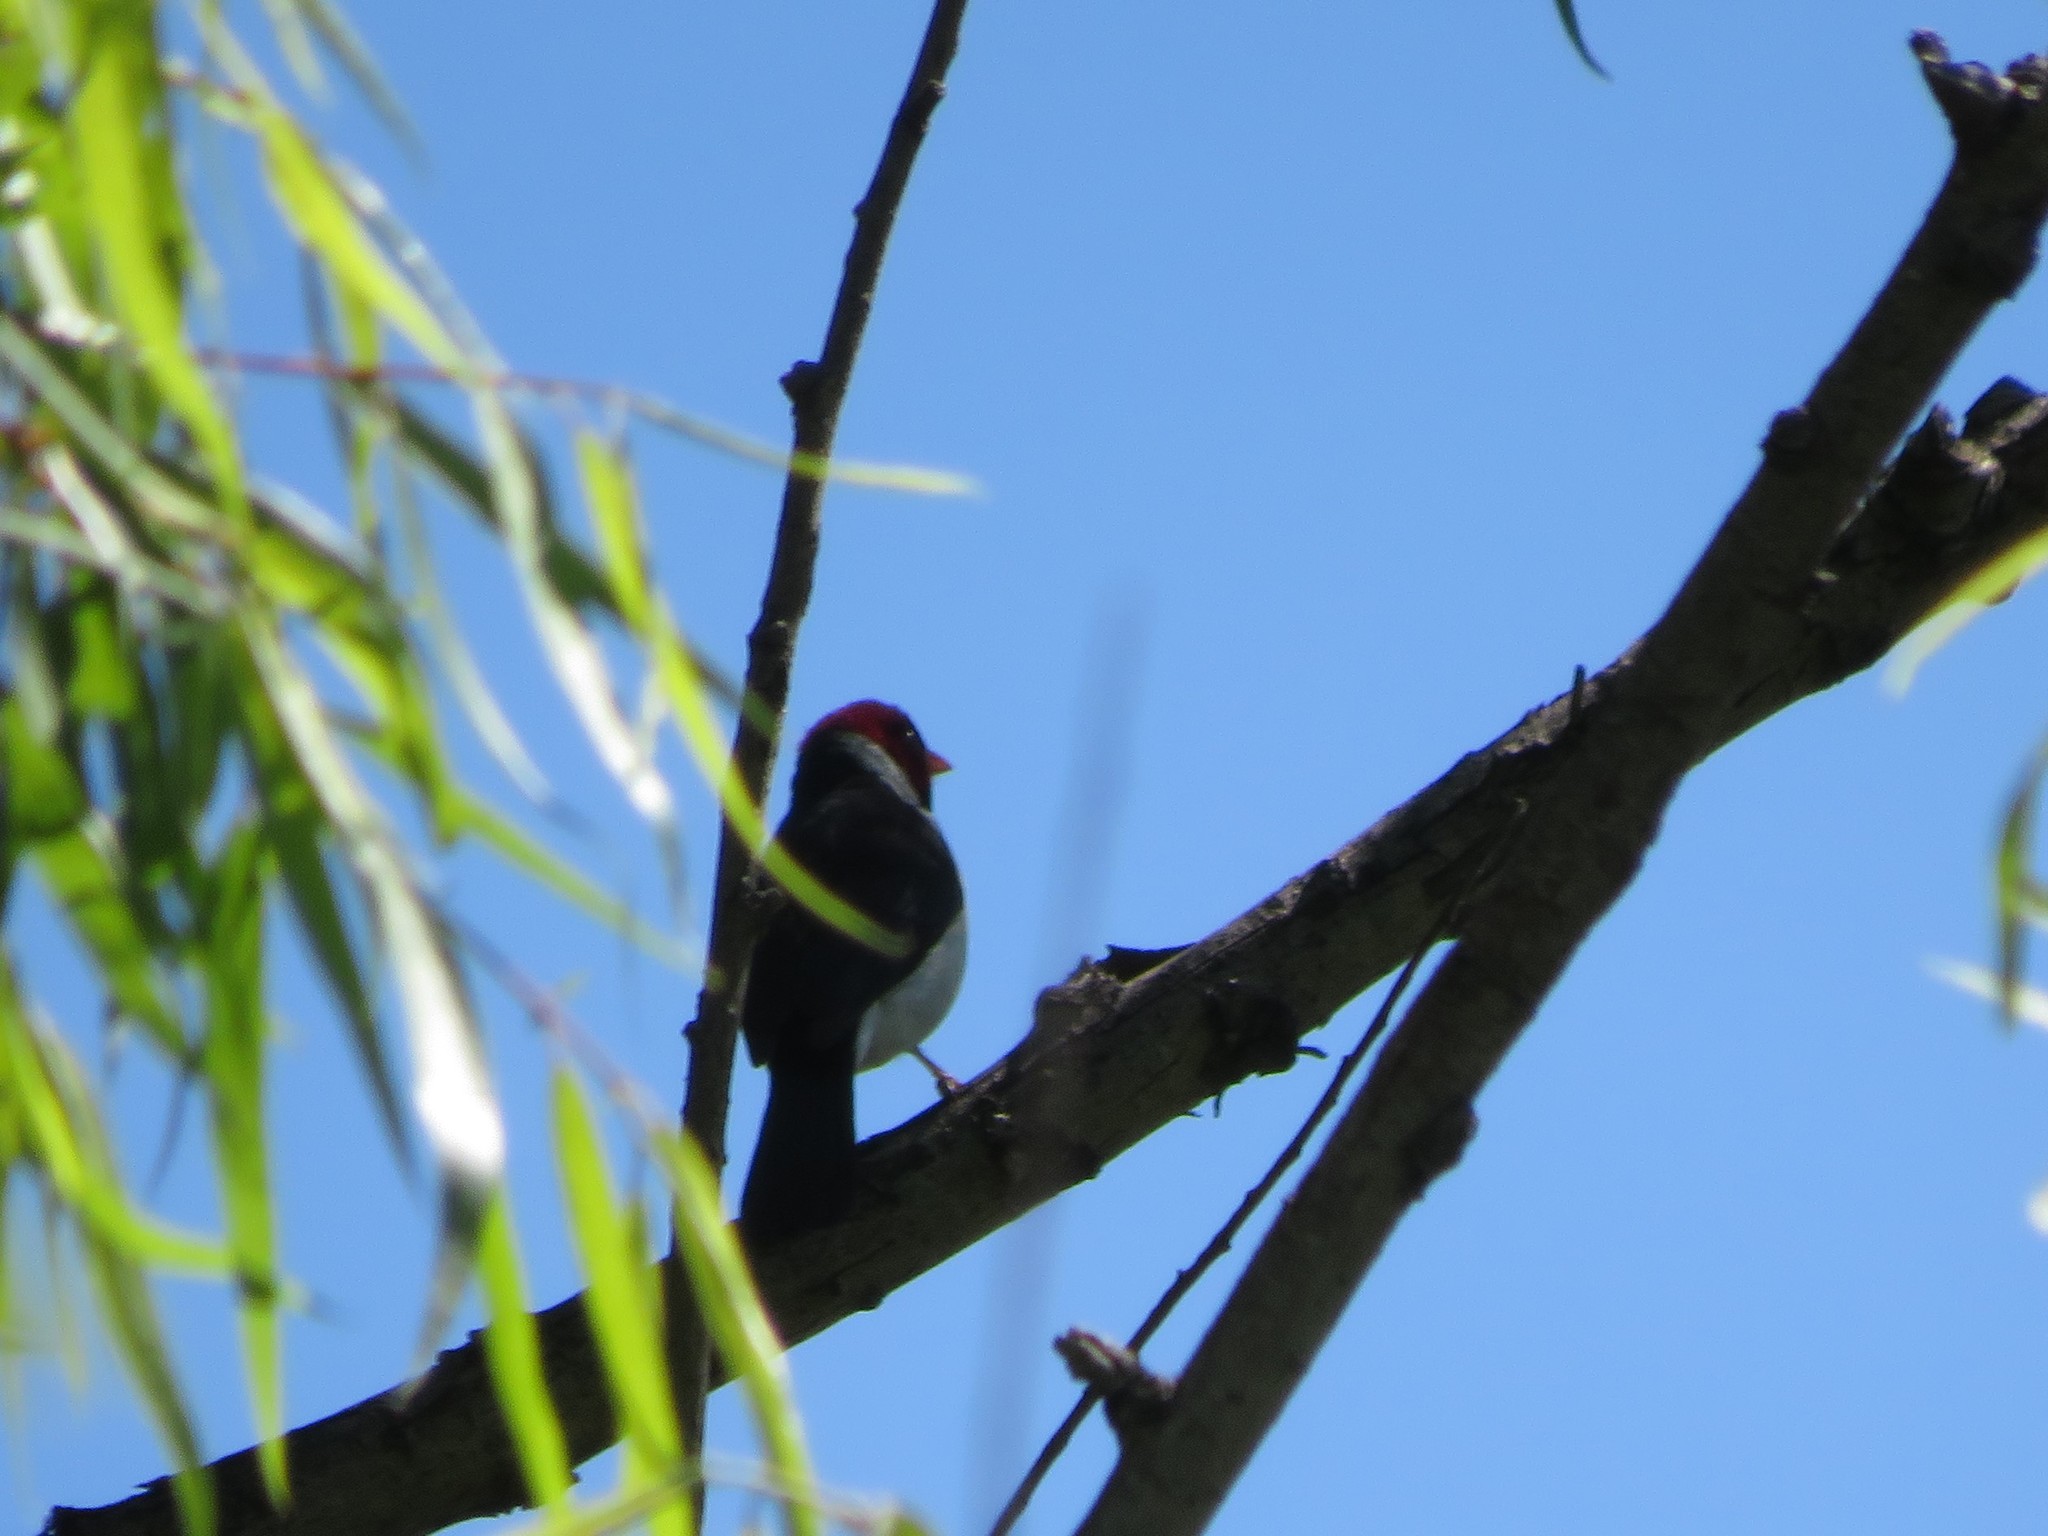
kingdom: Animalia
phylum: Chordata
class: Aves
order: Passeriformes
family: Thraupidae
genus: Paroaria
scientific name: Paroaria capitata
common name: Yellow-billed cardinal
